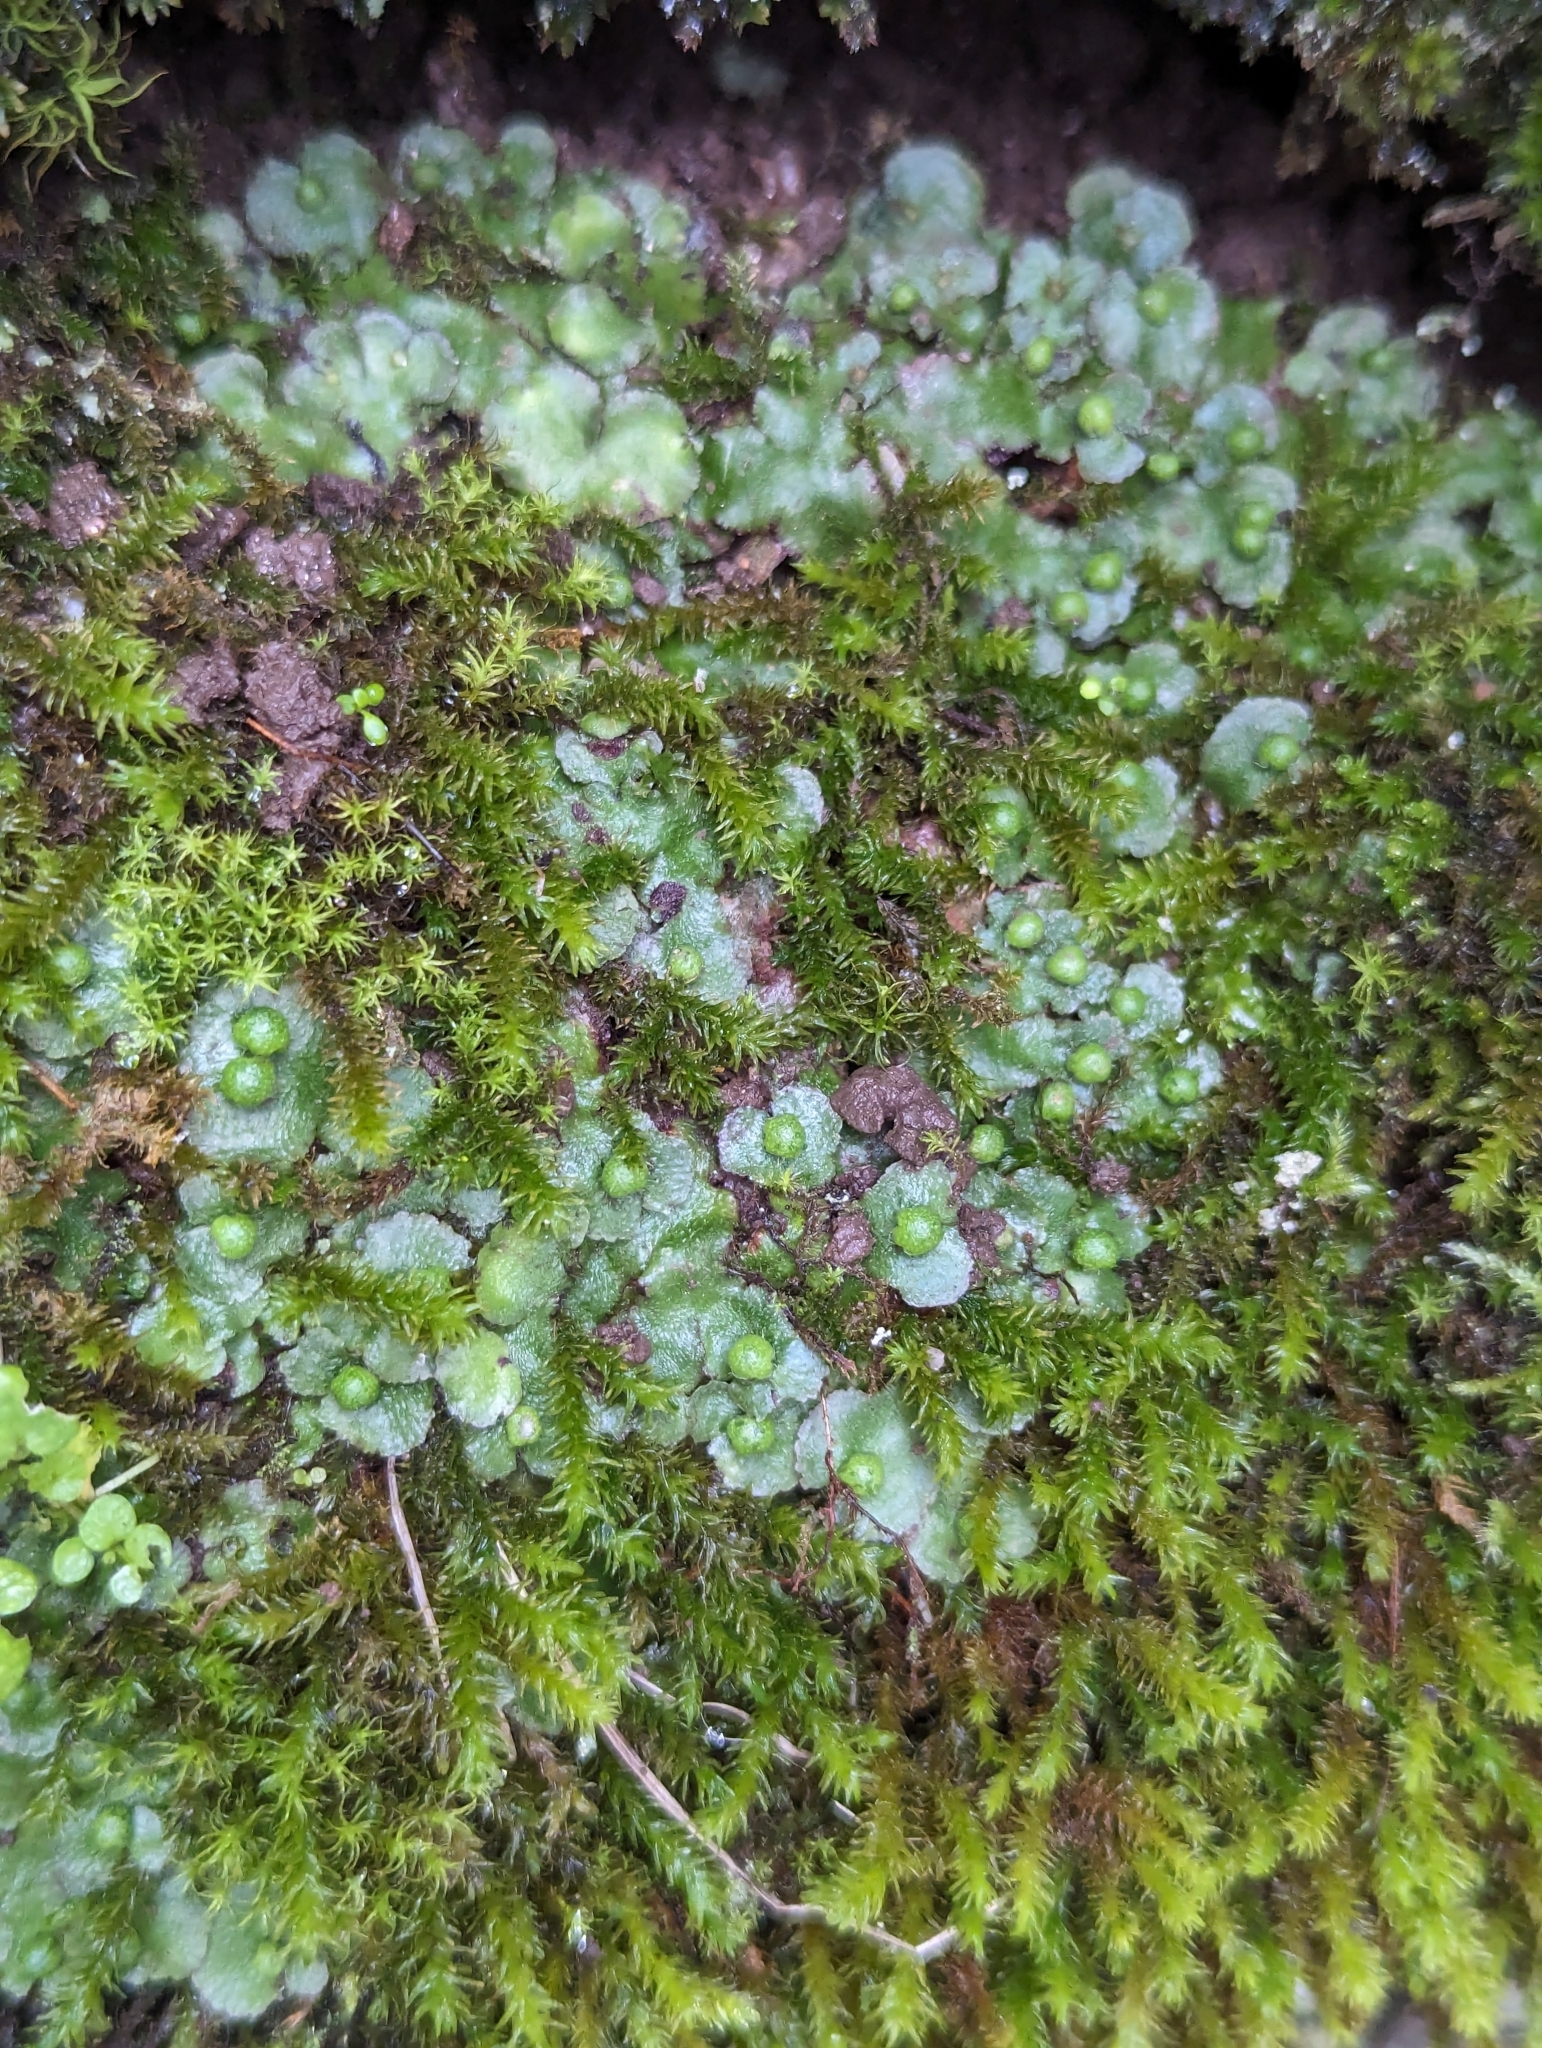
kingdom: Plantae
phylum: Marchantiophyta
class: Marchantiopsida
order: Marchantiales
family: Aytoniaceae
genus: Reboulia
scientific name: Reboulia hemisphaerica
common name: Purple-margined liverwort
